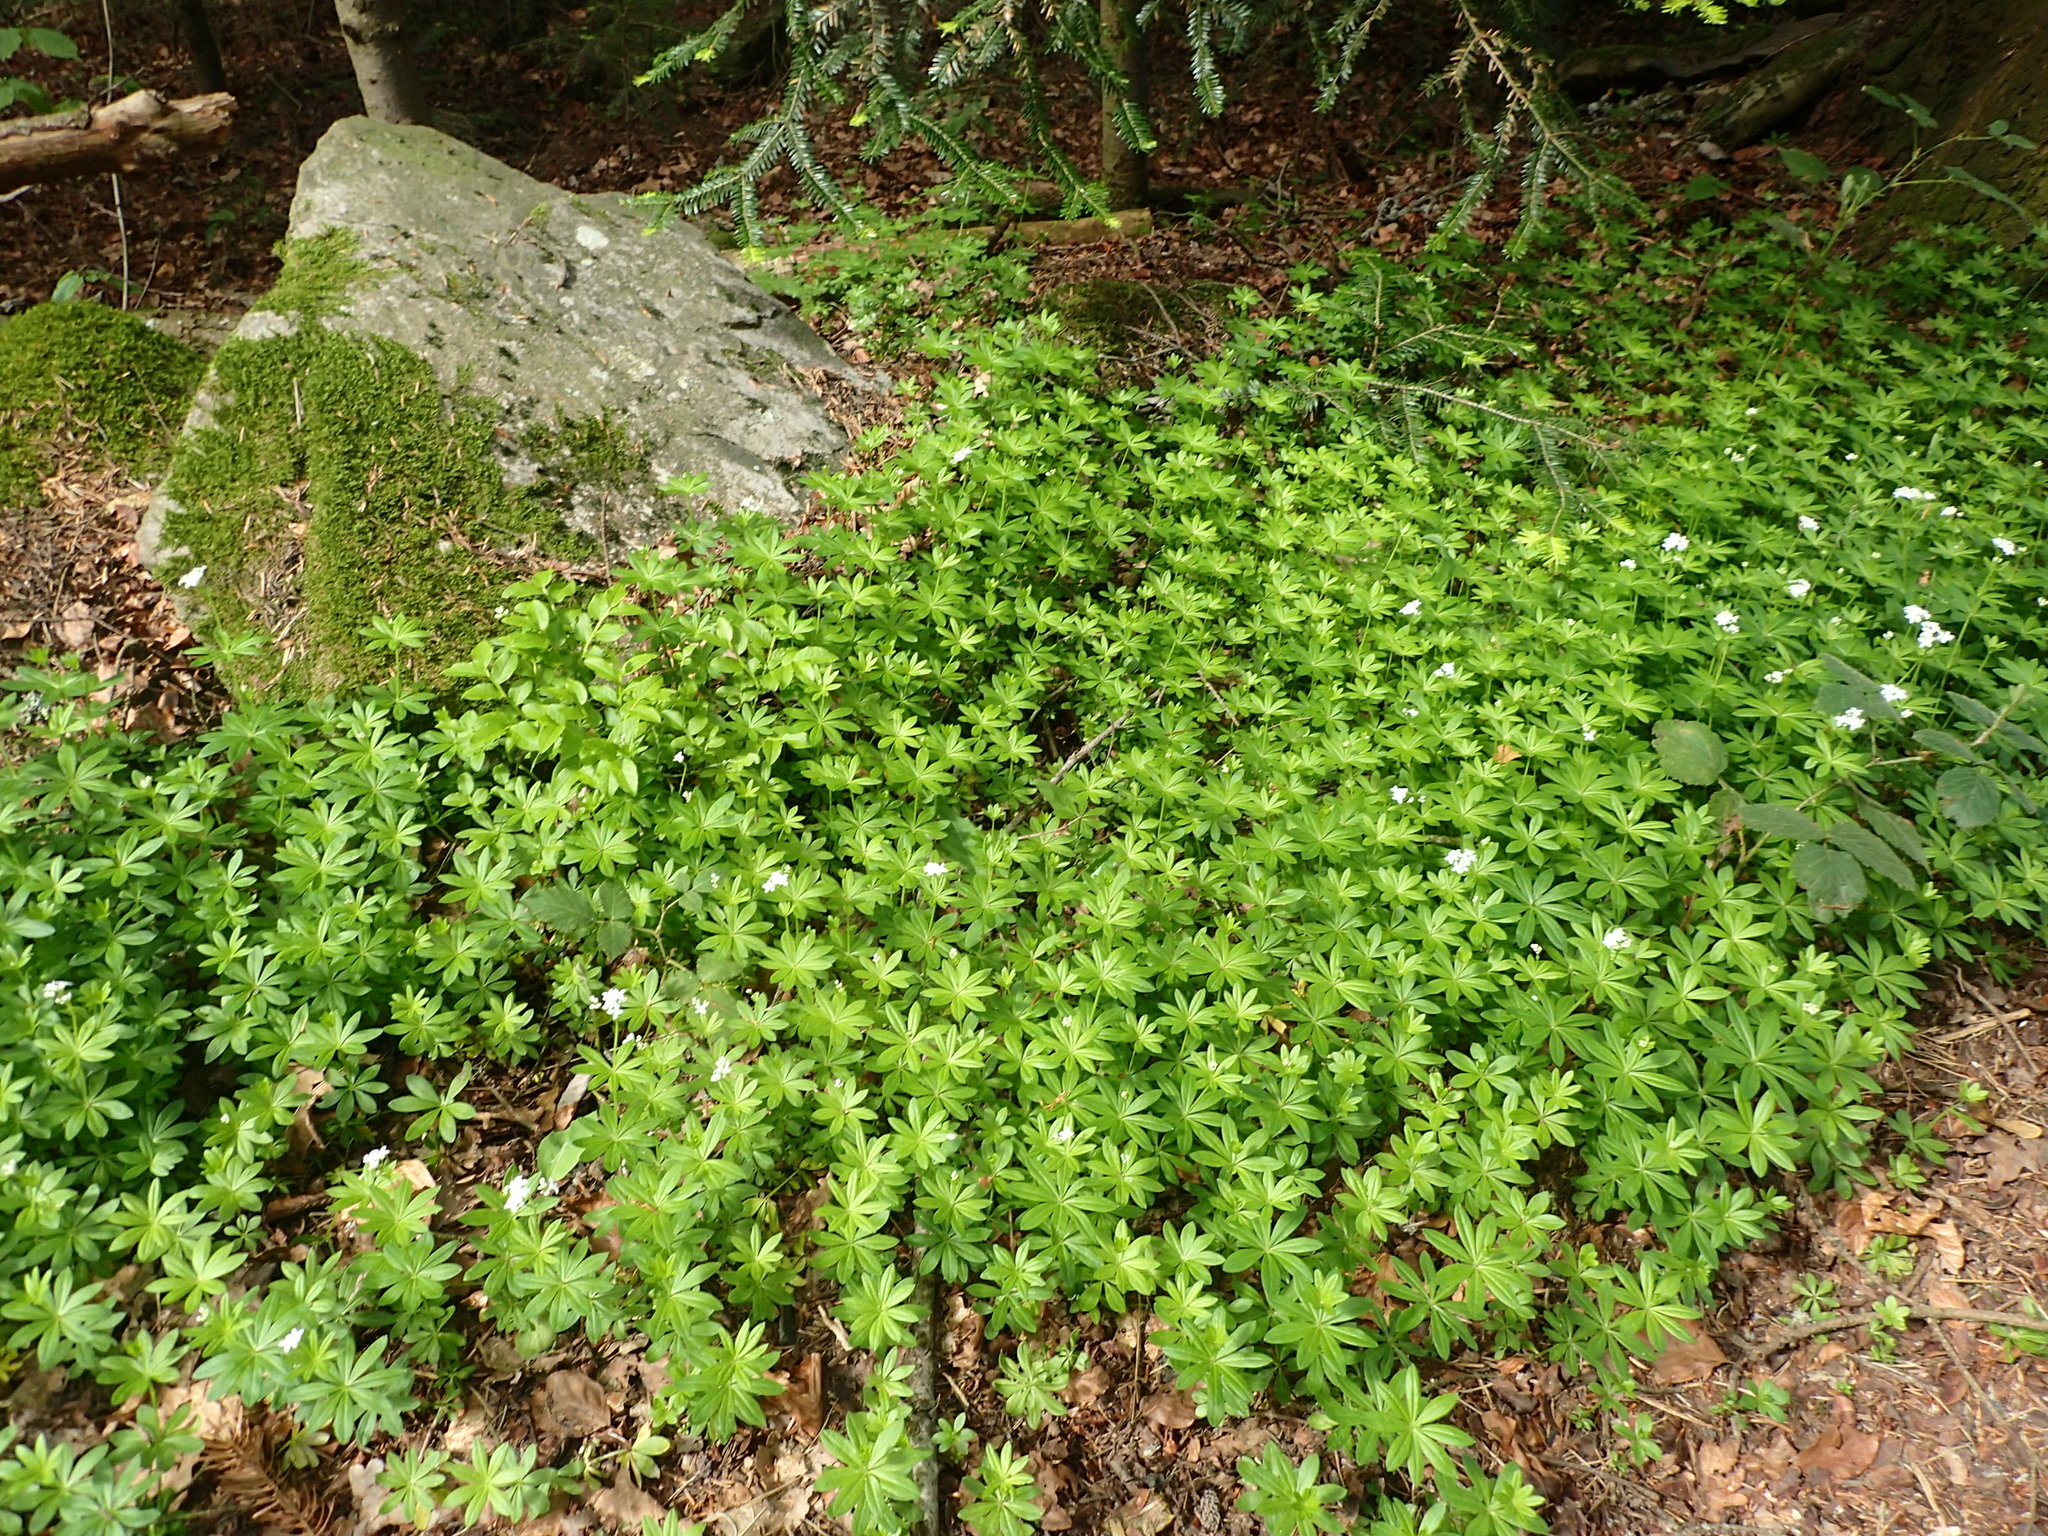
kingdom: Plantae
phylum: Tracheophyta
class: Magnoliopsida
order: Gentianales
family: Rubiaceae
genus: Galium
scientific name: Galium odoratum
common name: Sweet woodruff
